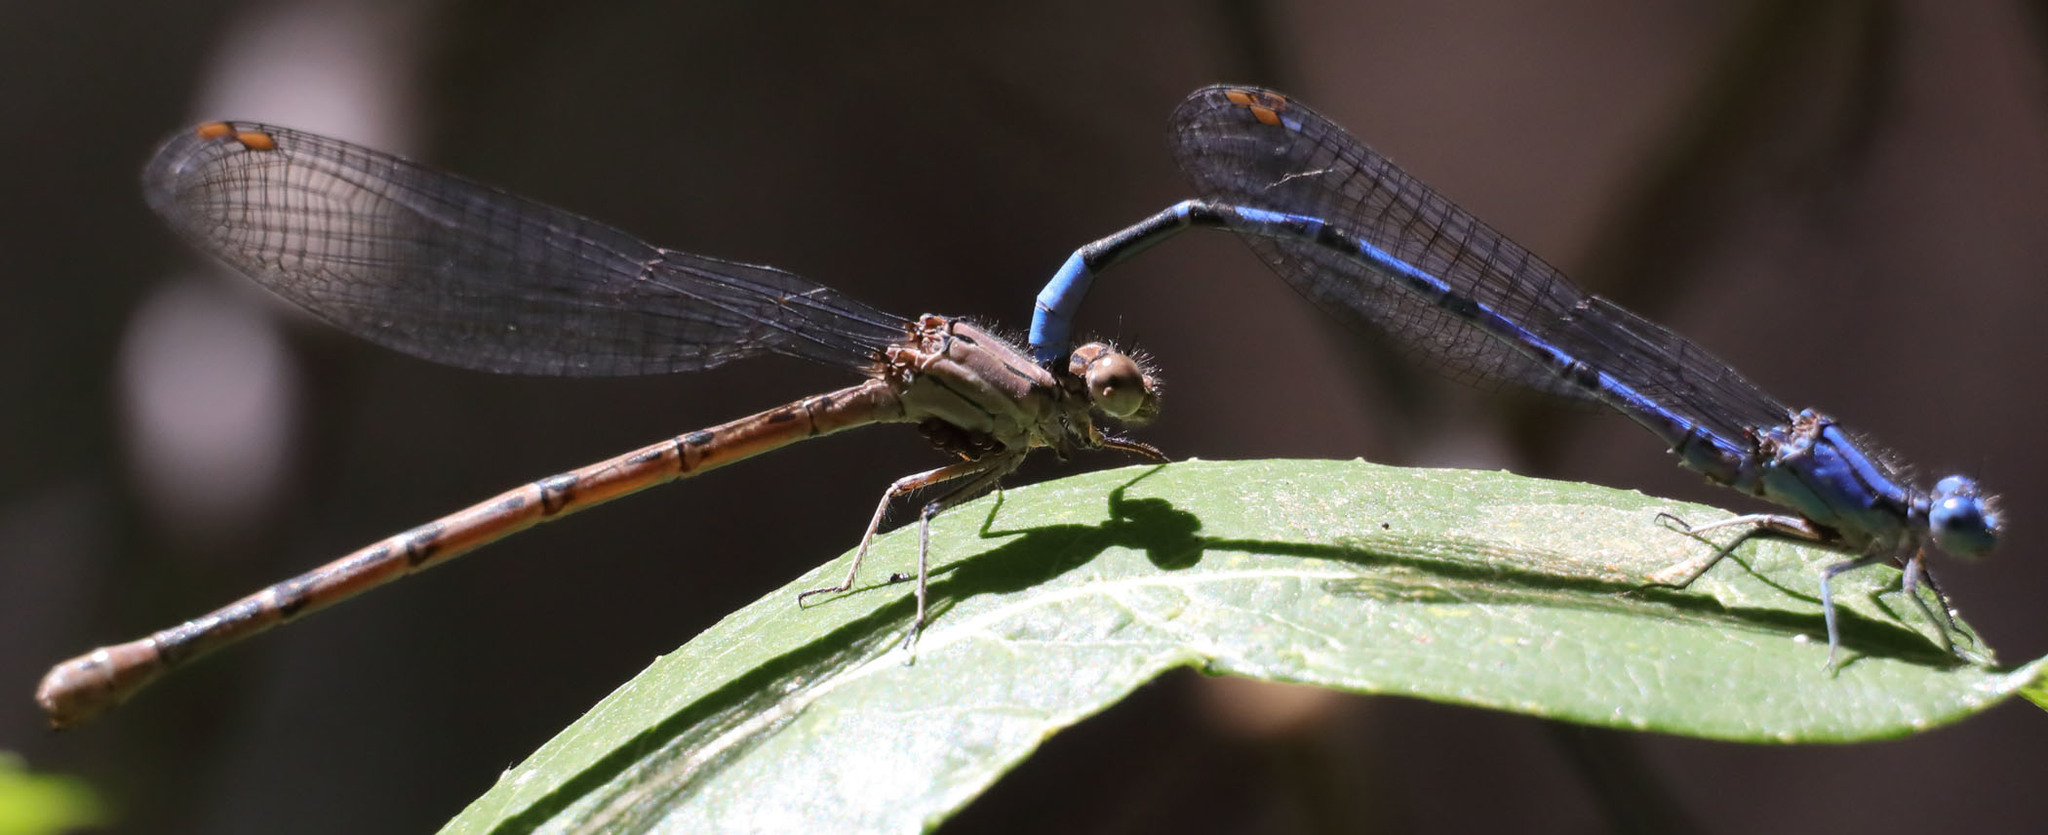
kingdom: Animalia
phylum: Arthropoda
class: Insecta
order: Odonata
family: Coenagrionidae
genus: Argia
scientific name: Argia vivida
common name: Vivid dancer
